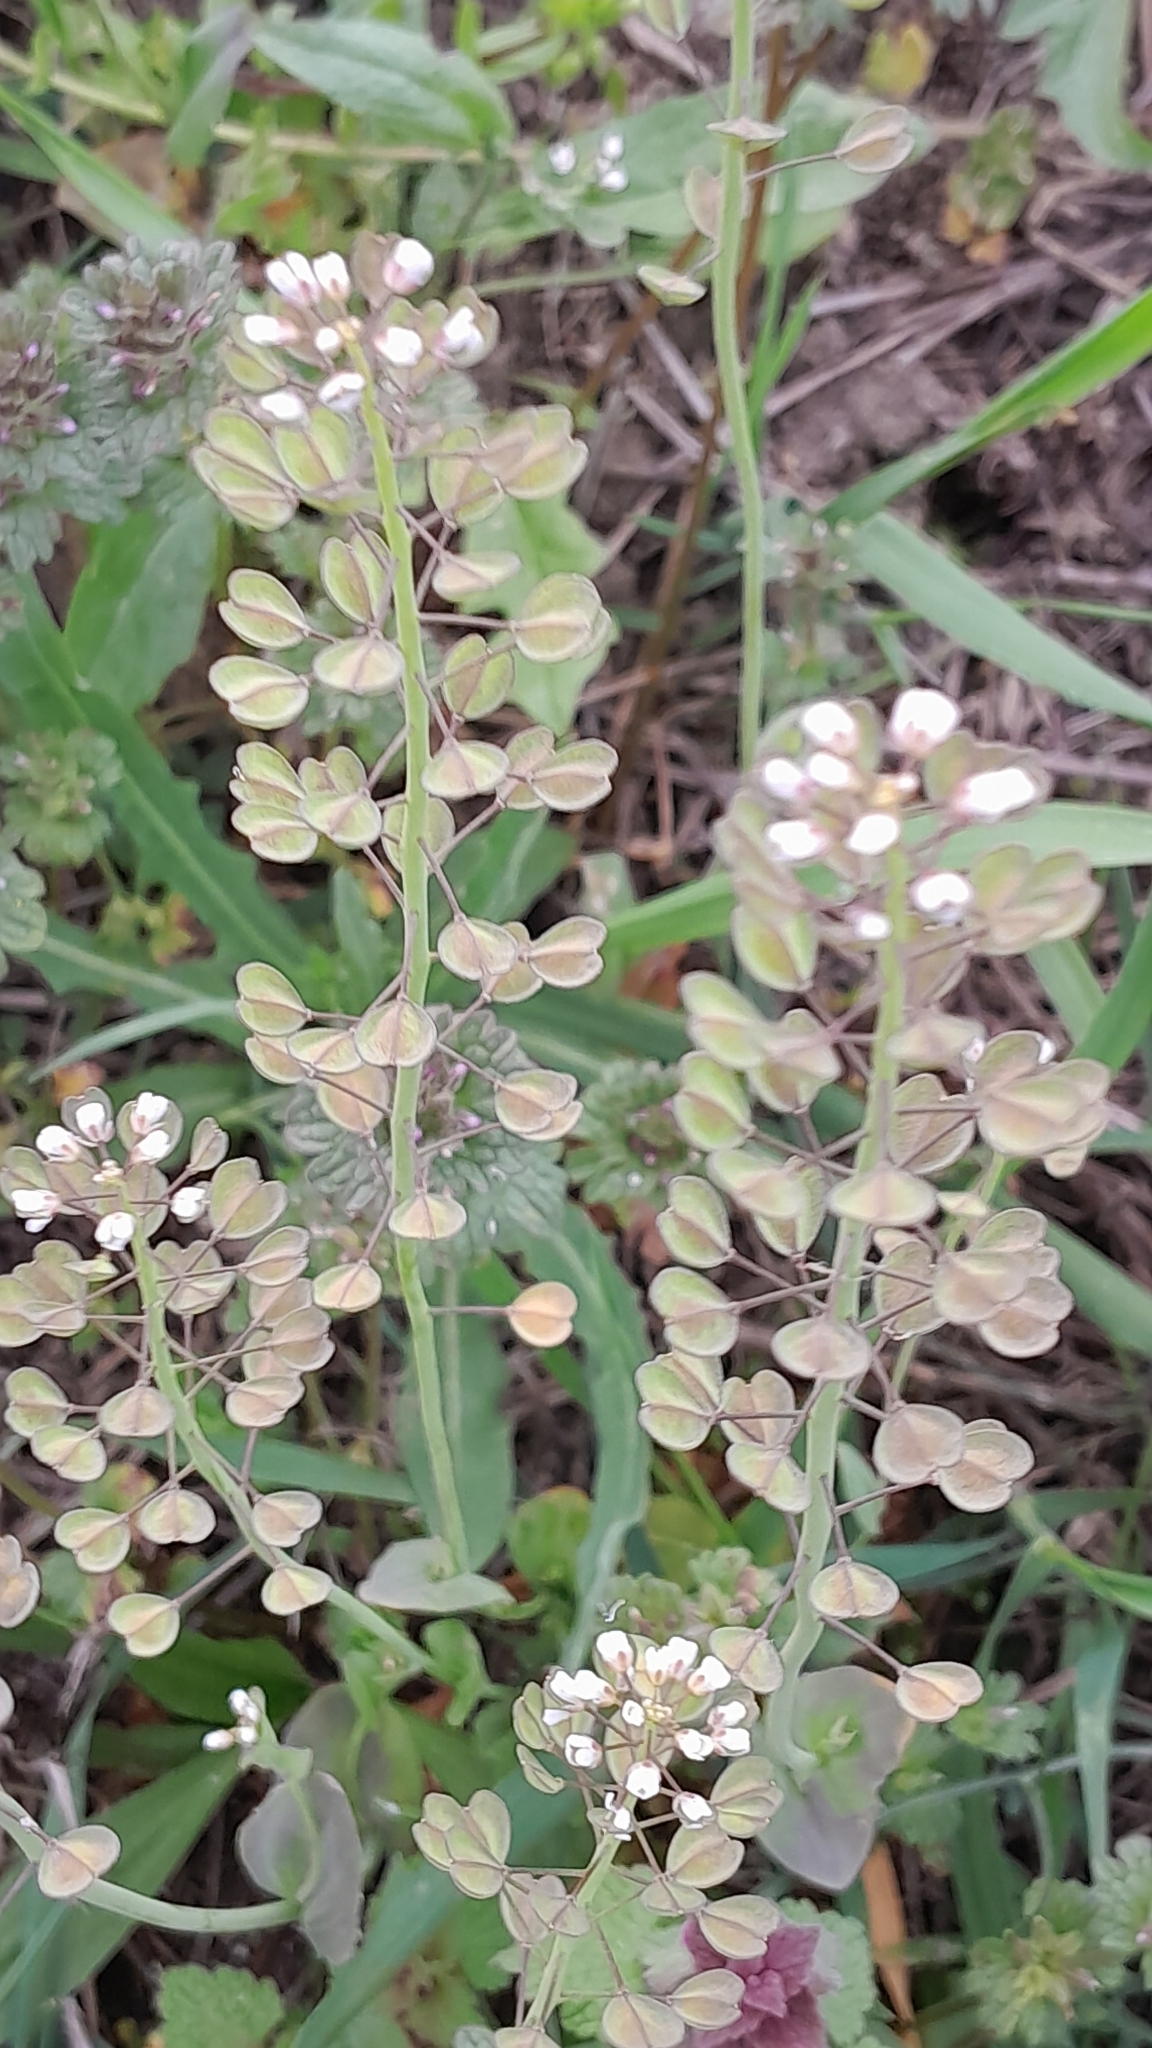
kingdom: Plantae
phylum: Tracheophyta
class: Magnoliopsida
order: Brassicales
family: Brassicaceae
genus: Noccaea
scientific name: Noccaea perfoliata
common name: Perfoliate pennycress
